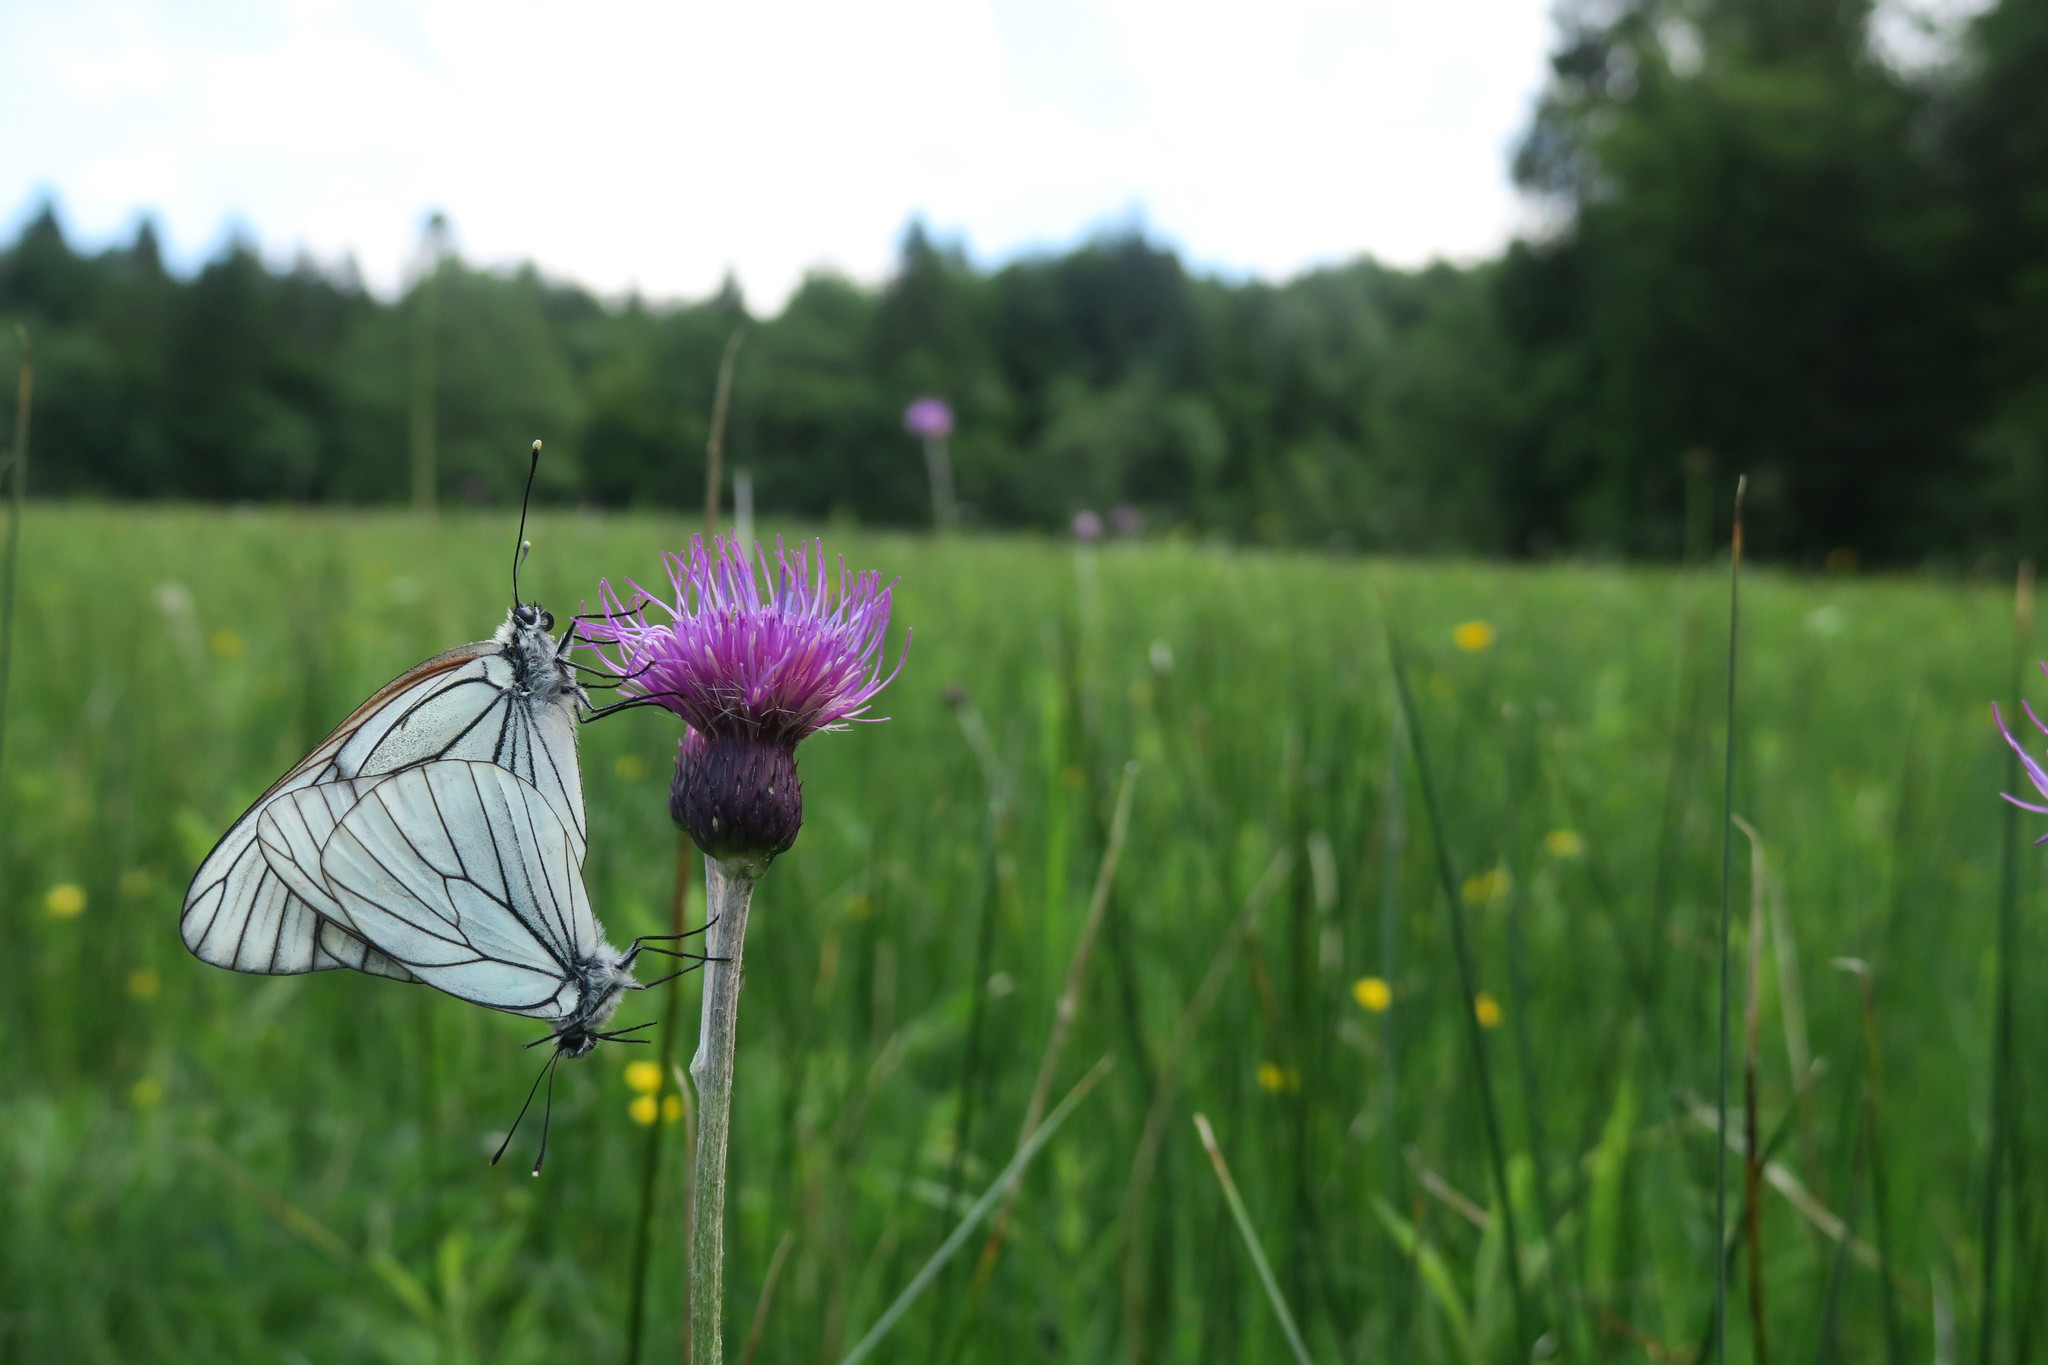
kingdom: Animalia
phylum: Arthropoda
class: Insecta
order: Lepidoptera
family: Pieridae
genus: Aporia
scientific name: Aporia crataegi
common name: Black-veined white
